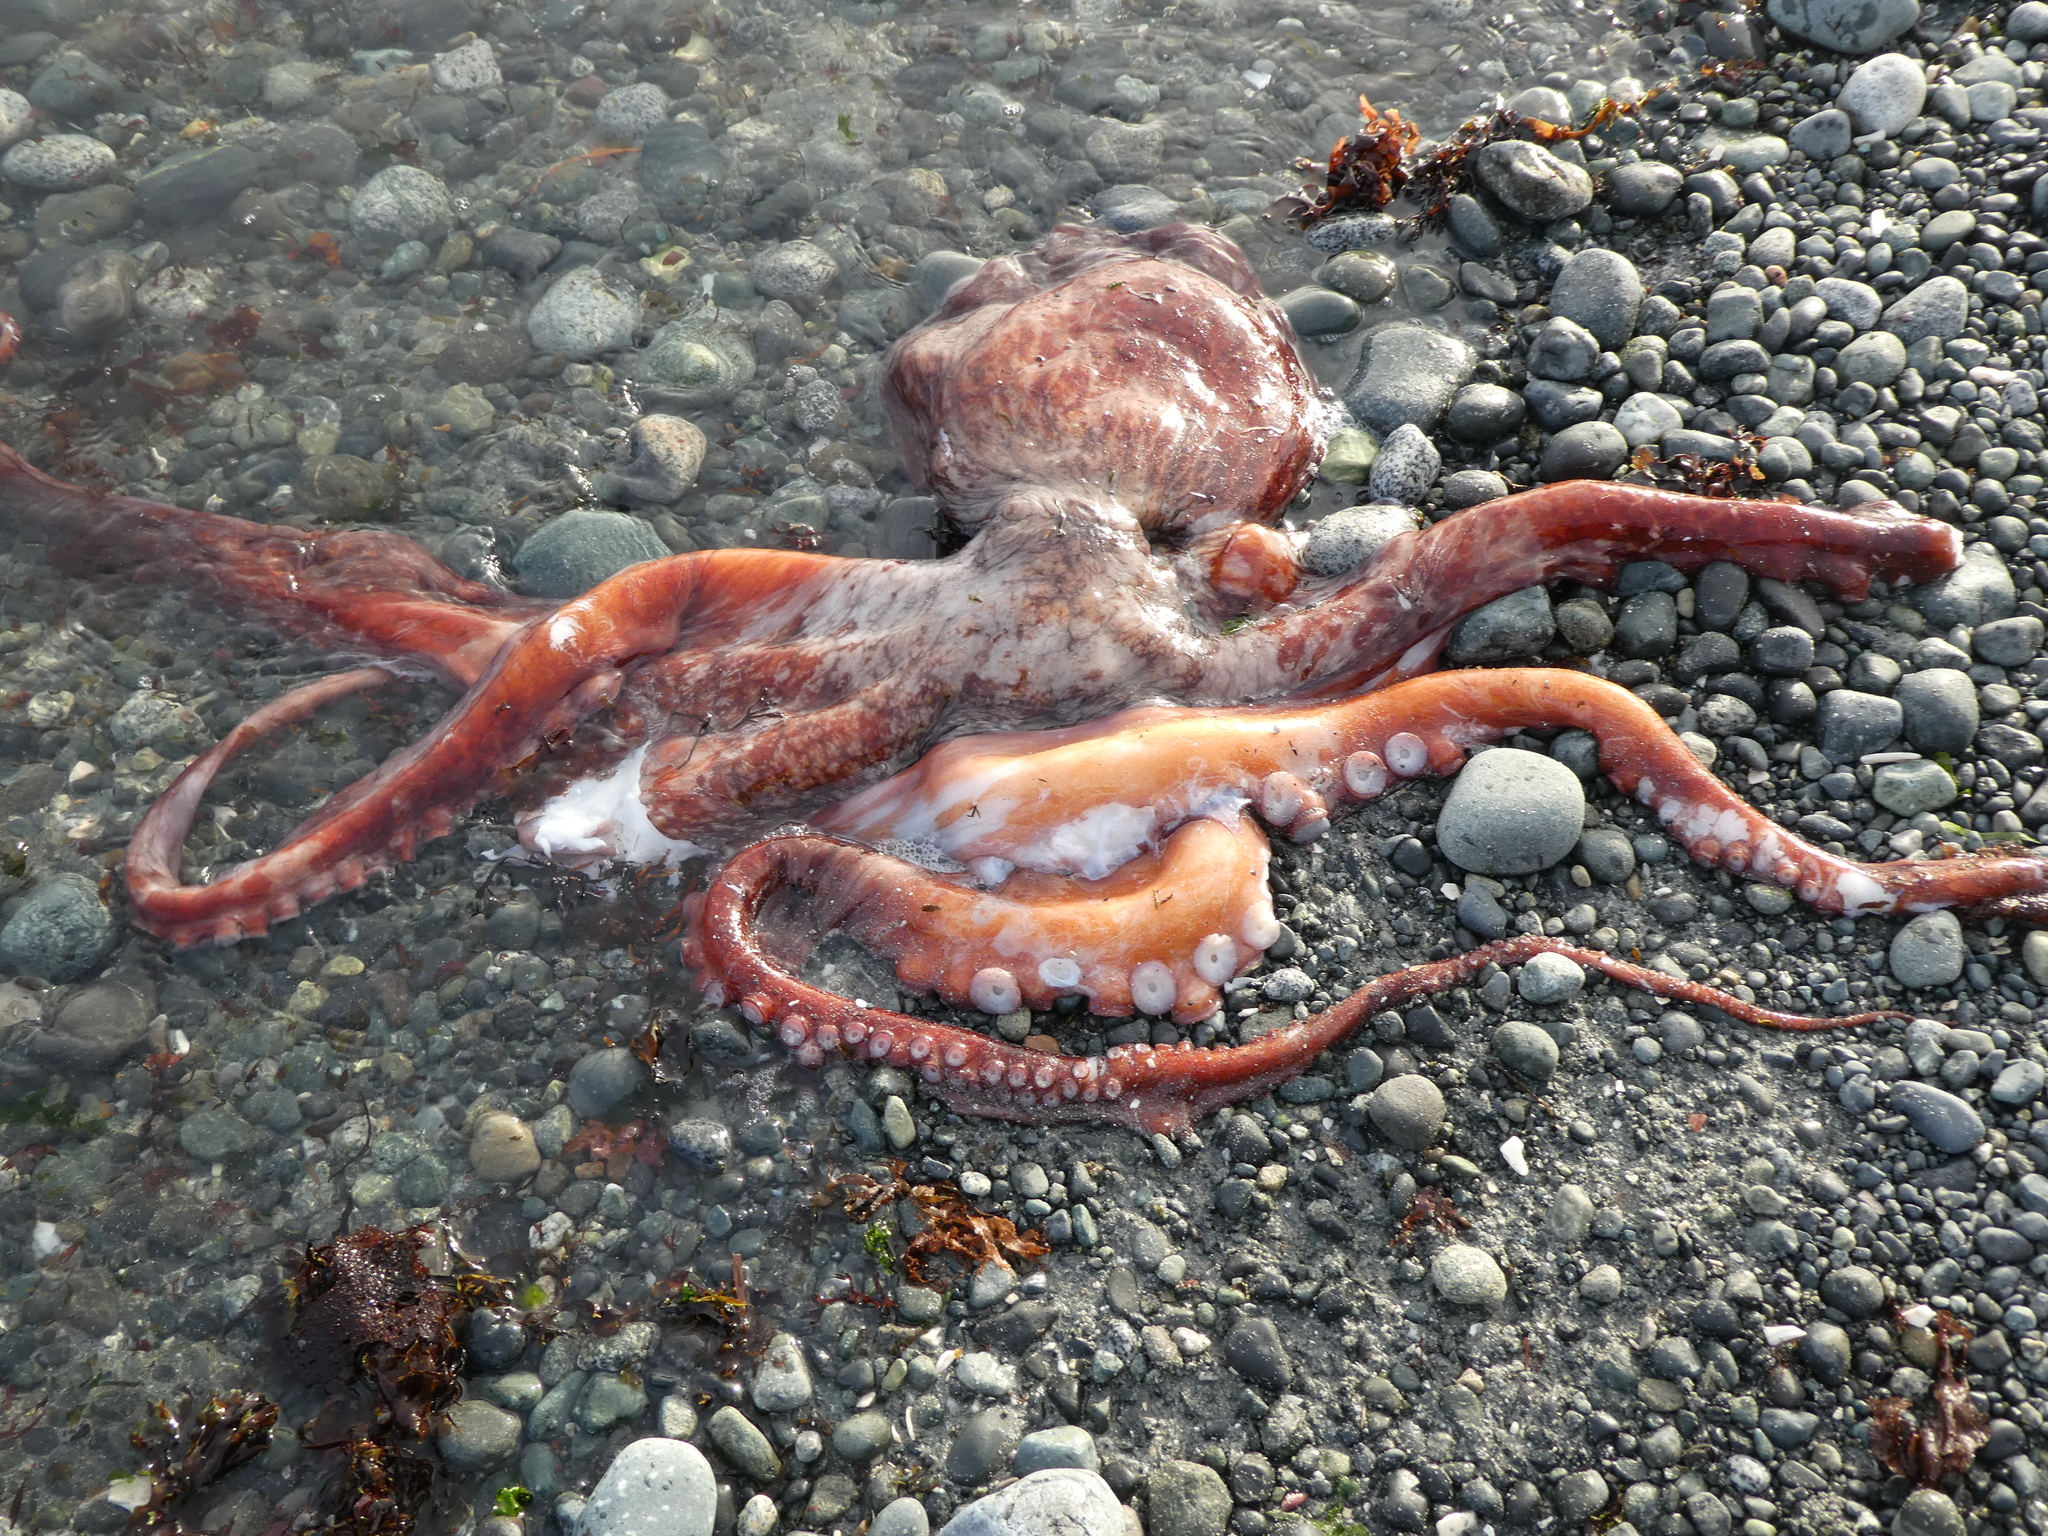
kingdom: Animalia
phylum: Mollusca
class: Cephalopoda
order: Octopoda
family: Enteroctopodidae
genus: Enteroctopus
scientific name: Enteroctopus dofleini
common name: Giant north pacific octopus
